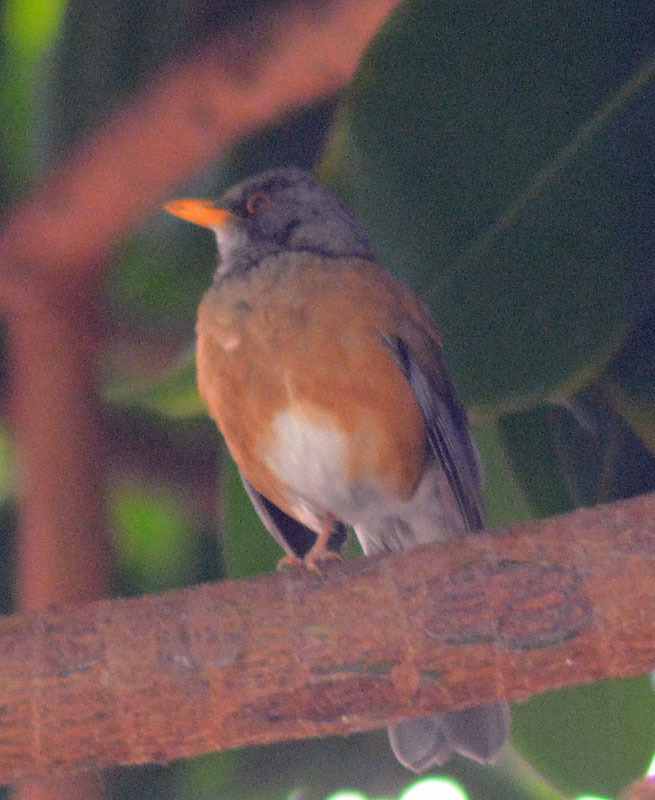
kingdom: Animalia
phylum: Chordata
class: Aves
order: Passeriformes
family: Turdidae
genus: Turdus
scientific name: Turdus rufopalliatus
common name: Rufous-backed robin
